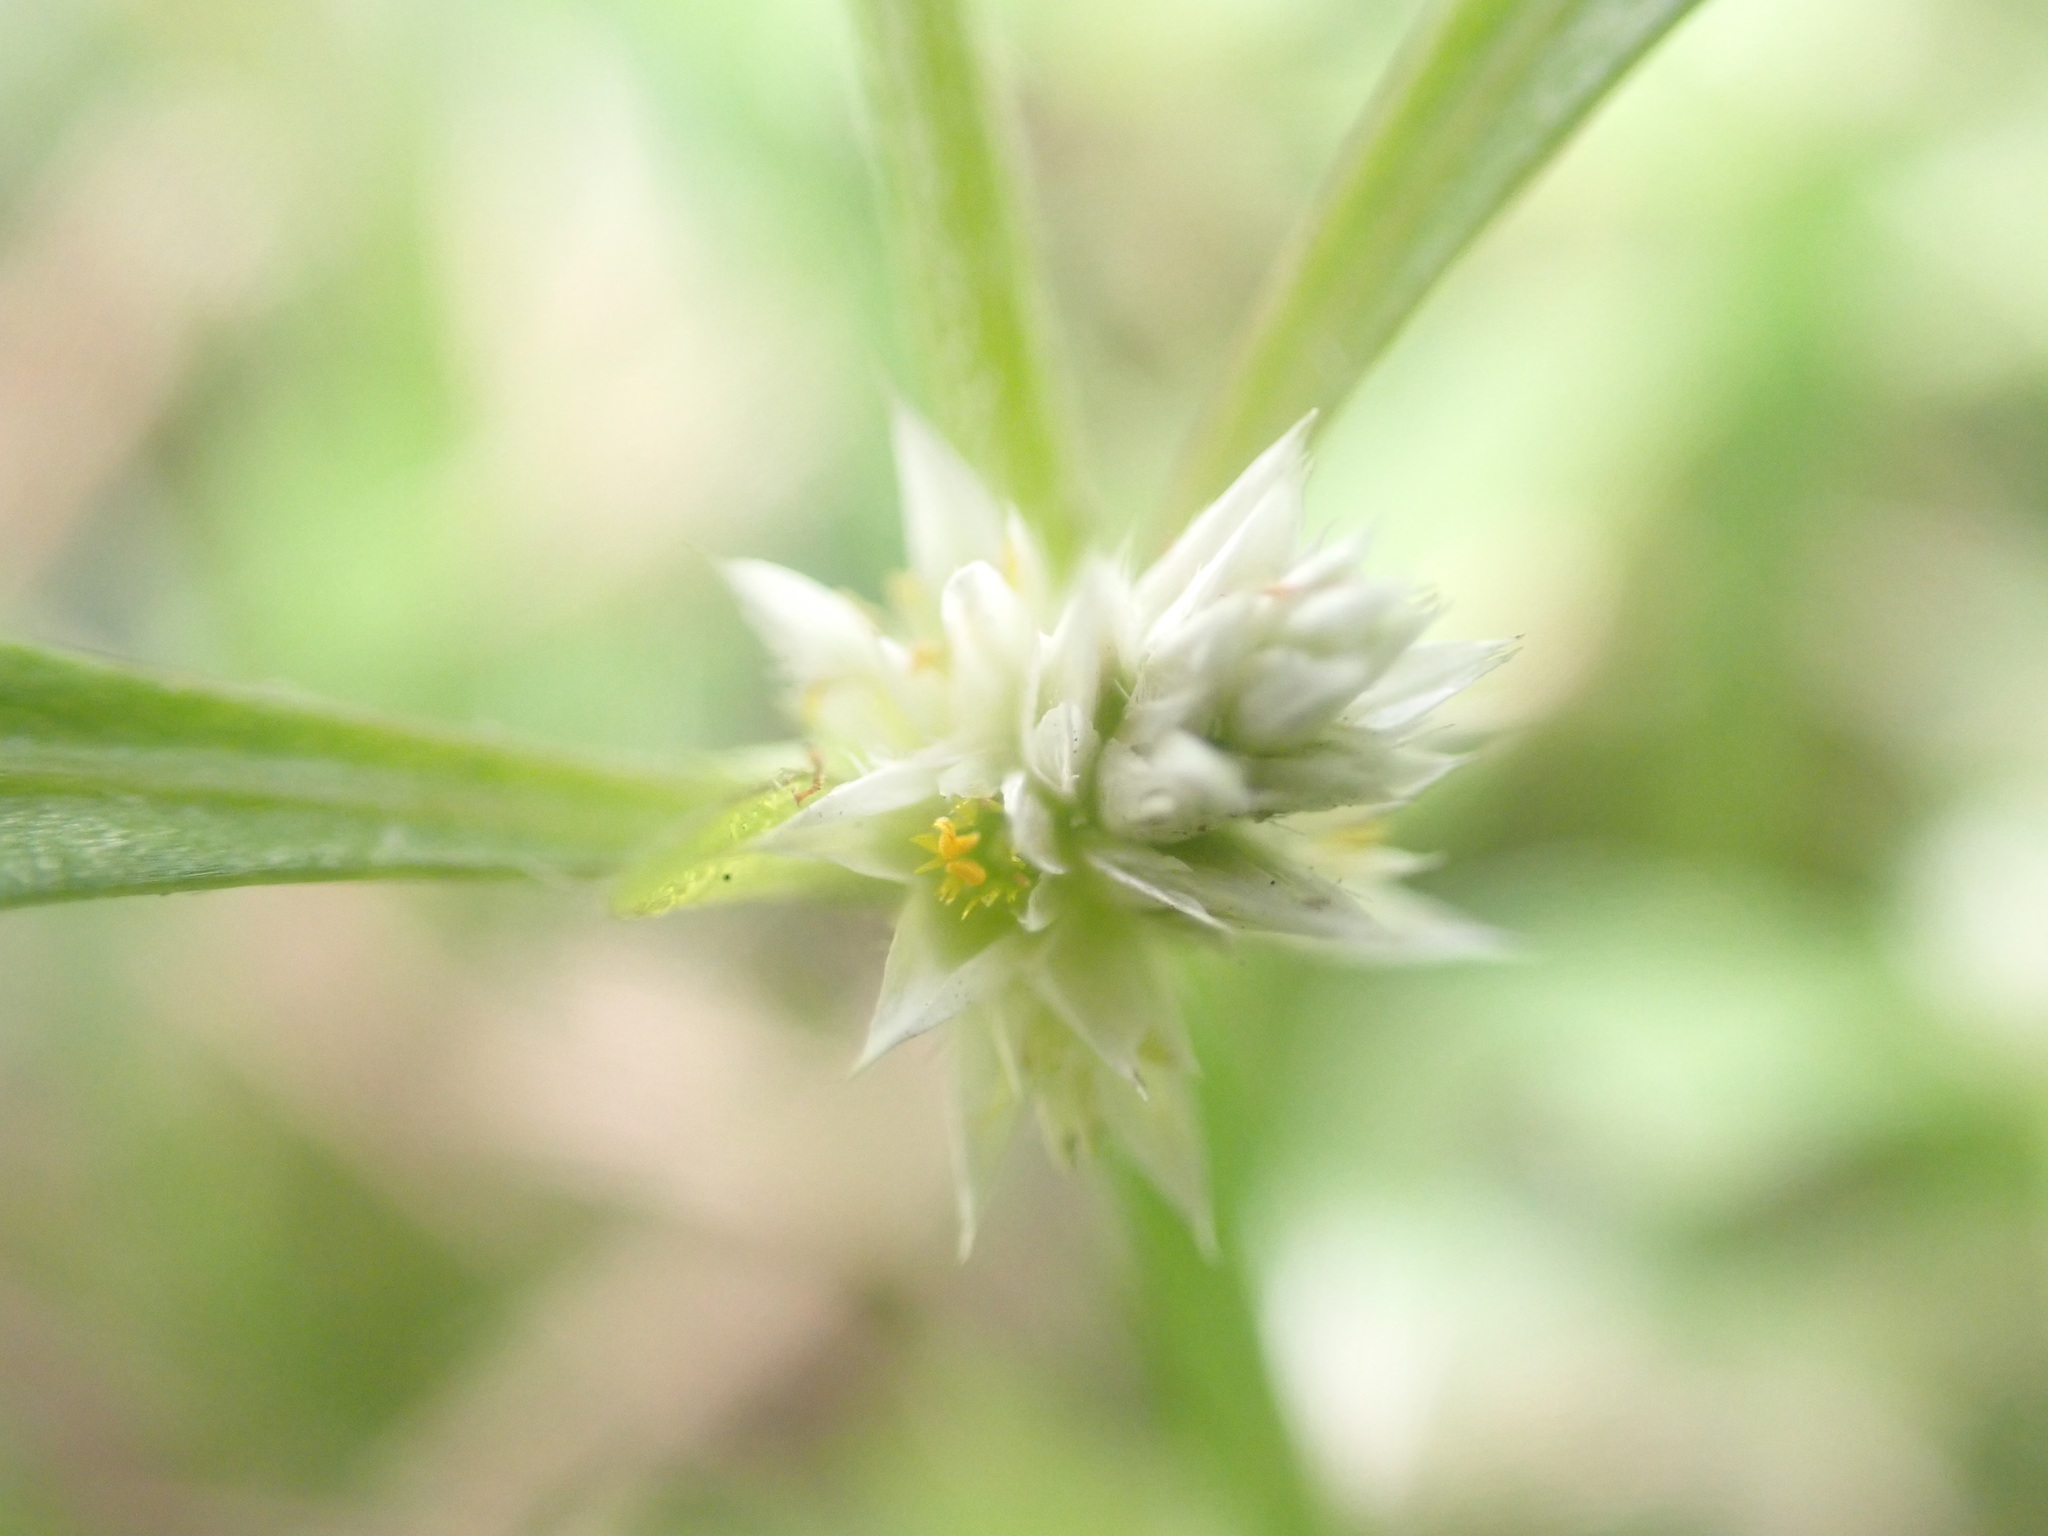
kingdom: Plantae
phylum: Tracheophyta
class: Magnoliopsida
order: Caryophyllales
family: Amaranthaceae
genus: Alternanthera
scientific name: Alternanthera bettzickiana
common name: Calico-plant
